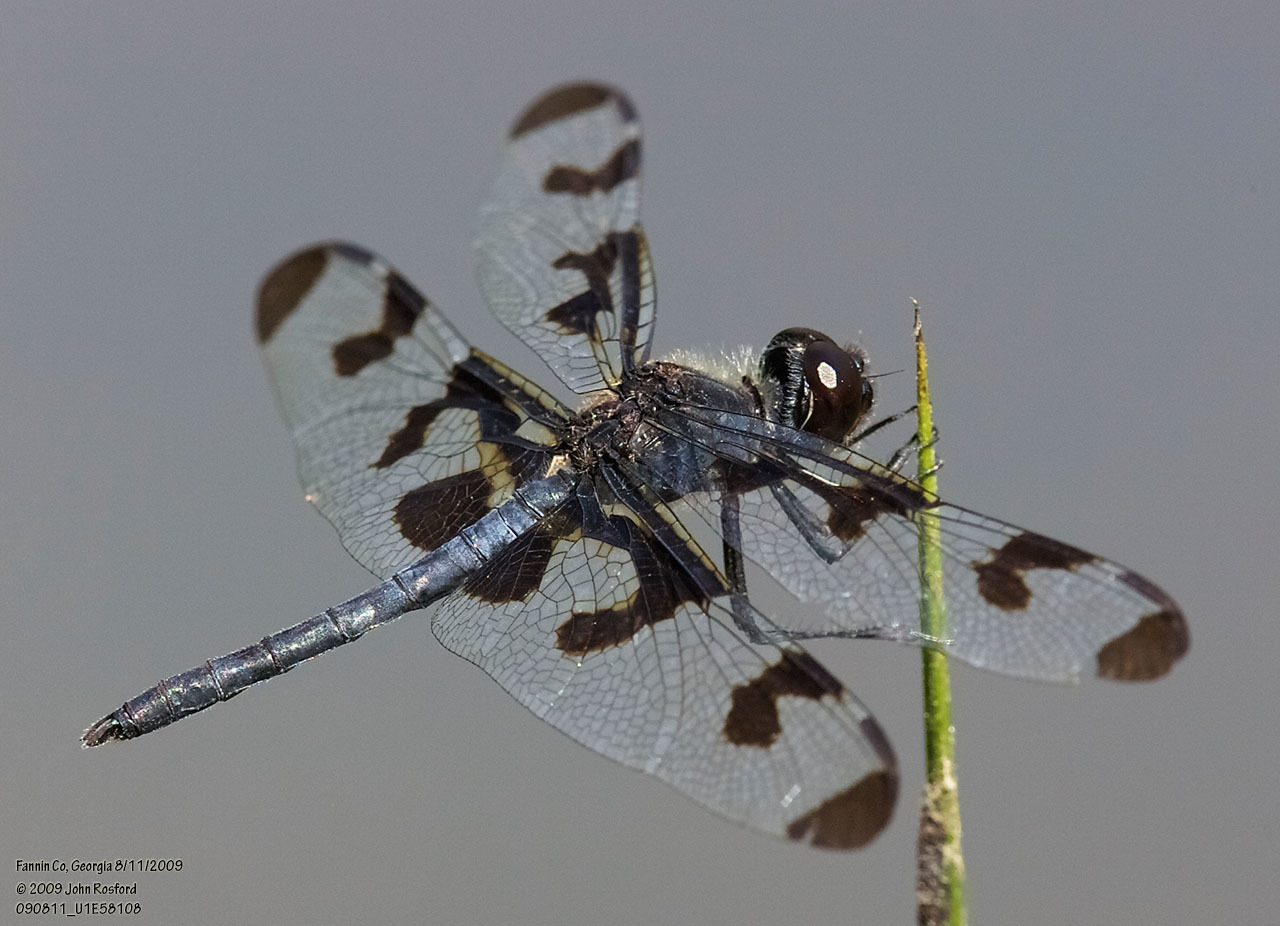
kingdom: Animalia
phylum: Arthropoda
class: Insecta
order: Odonata
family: Libellulidae
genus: Celithemis
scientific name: Celithemis fasciata
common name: Banded pennant
